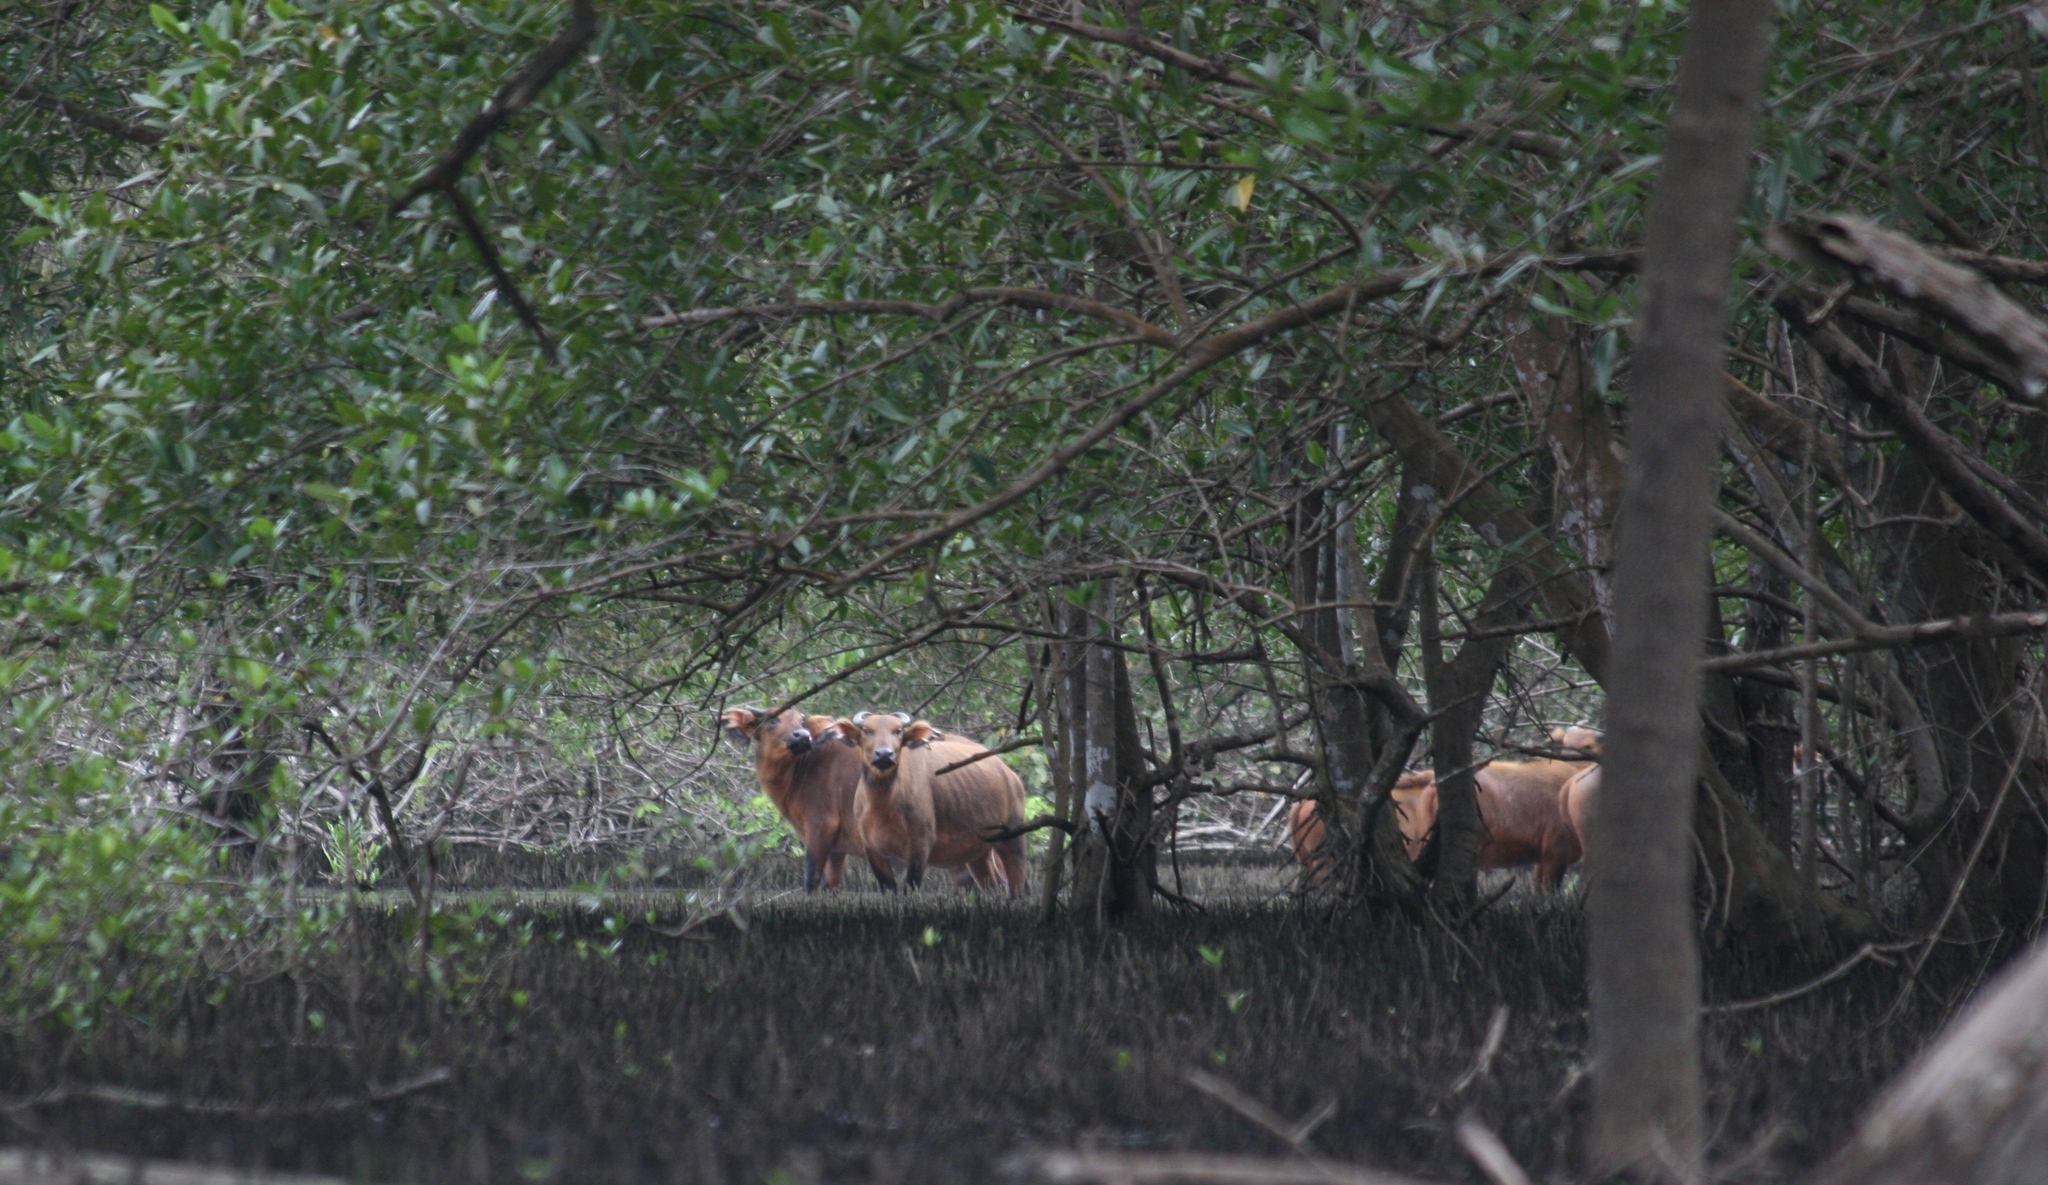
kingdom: Animalia
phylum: Chordata
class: Mammalia
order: Artiodactyla
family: Bovidae
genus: Syncerus
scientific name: Syncerus caffer
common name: African buffalo
